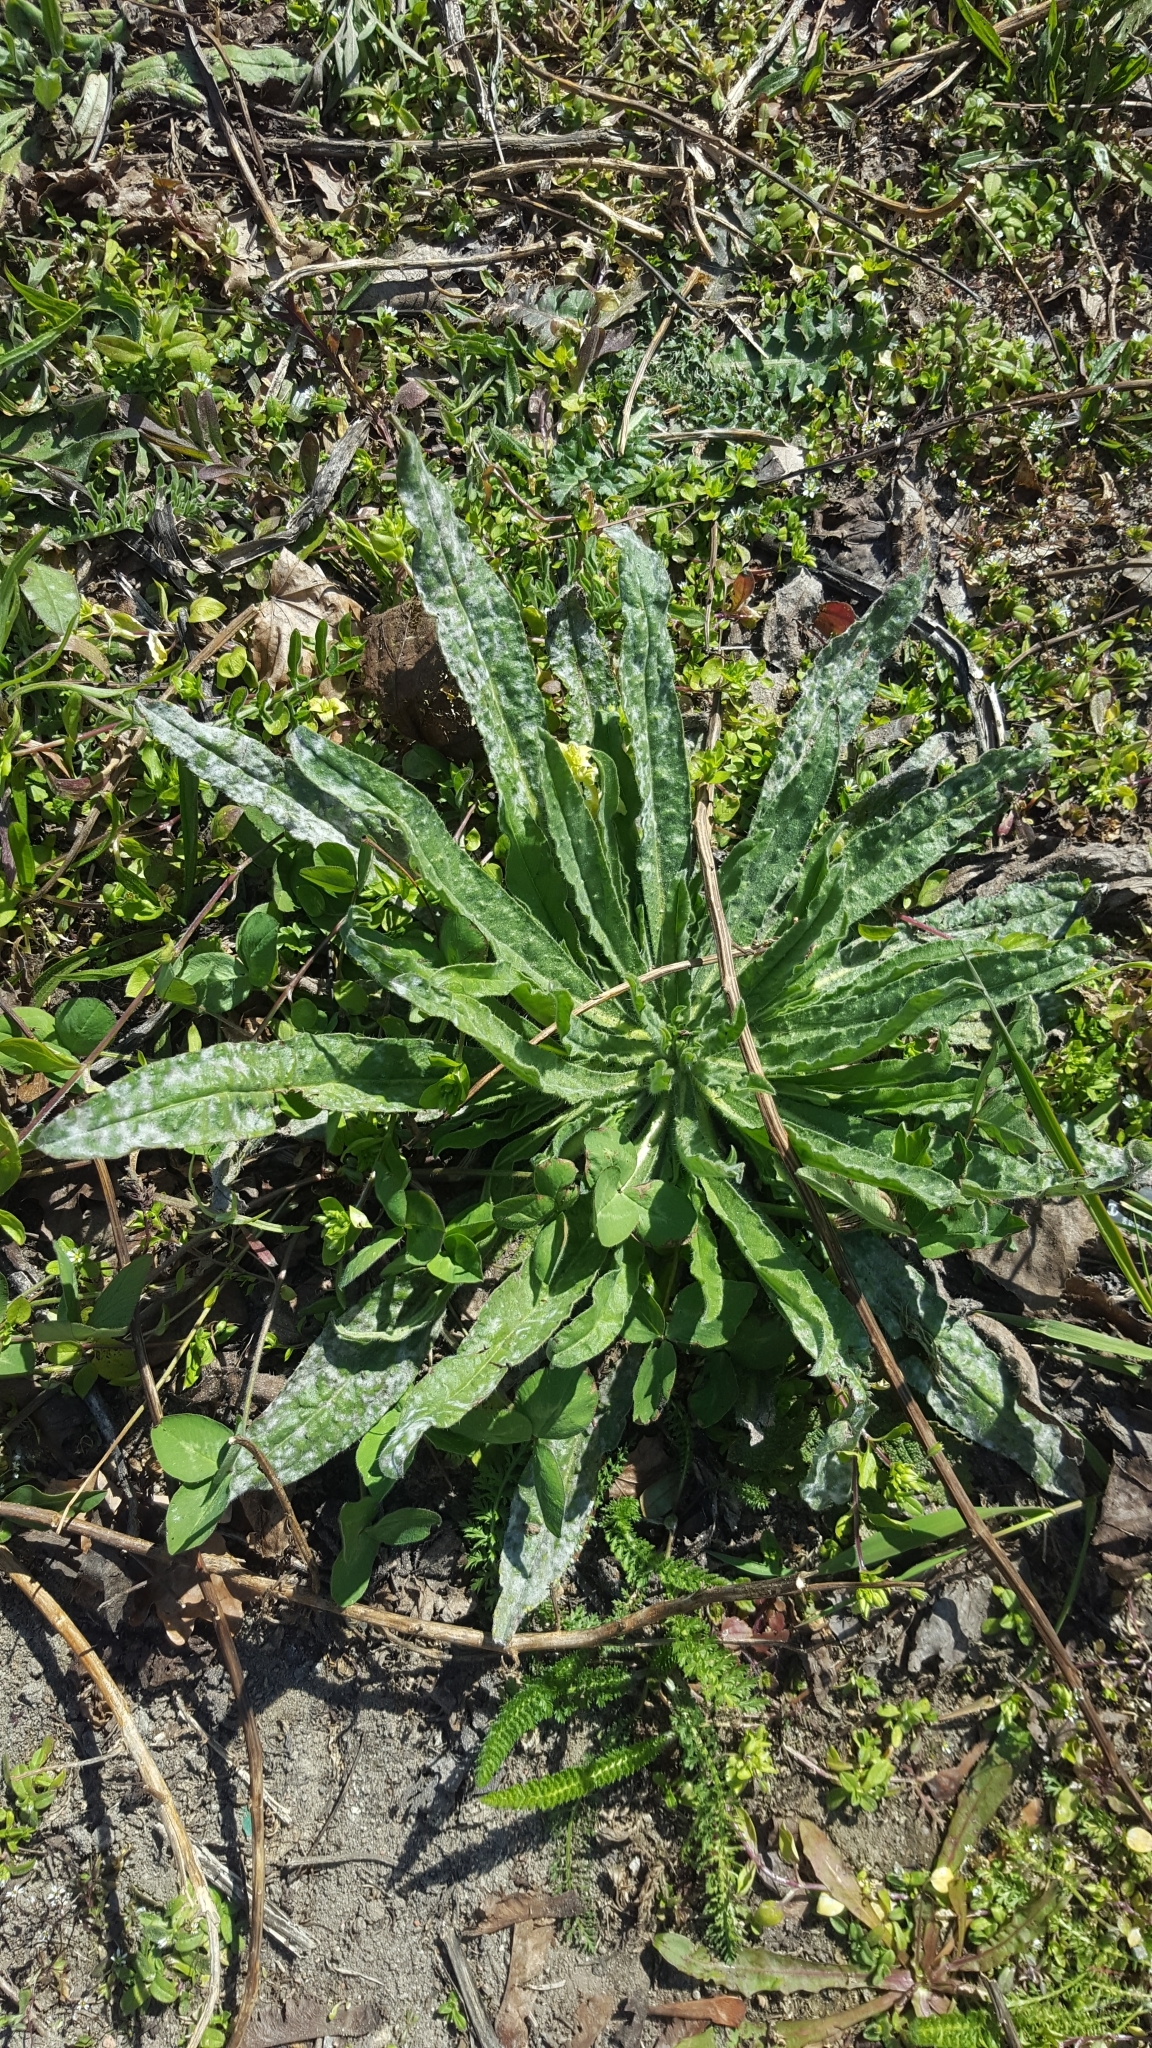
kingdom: Plantae
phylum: Tracheophyta
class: Magnoliopsida
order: Boraginales
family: Boraginaceae
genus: Echium
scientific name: Echium vulgare
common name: Common viper's bugloss
